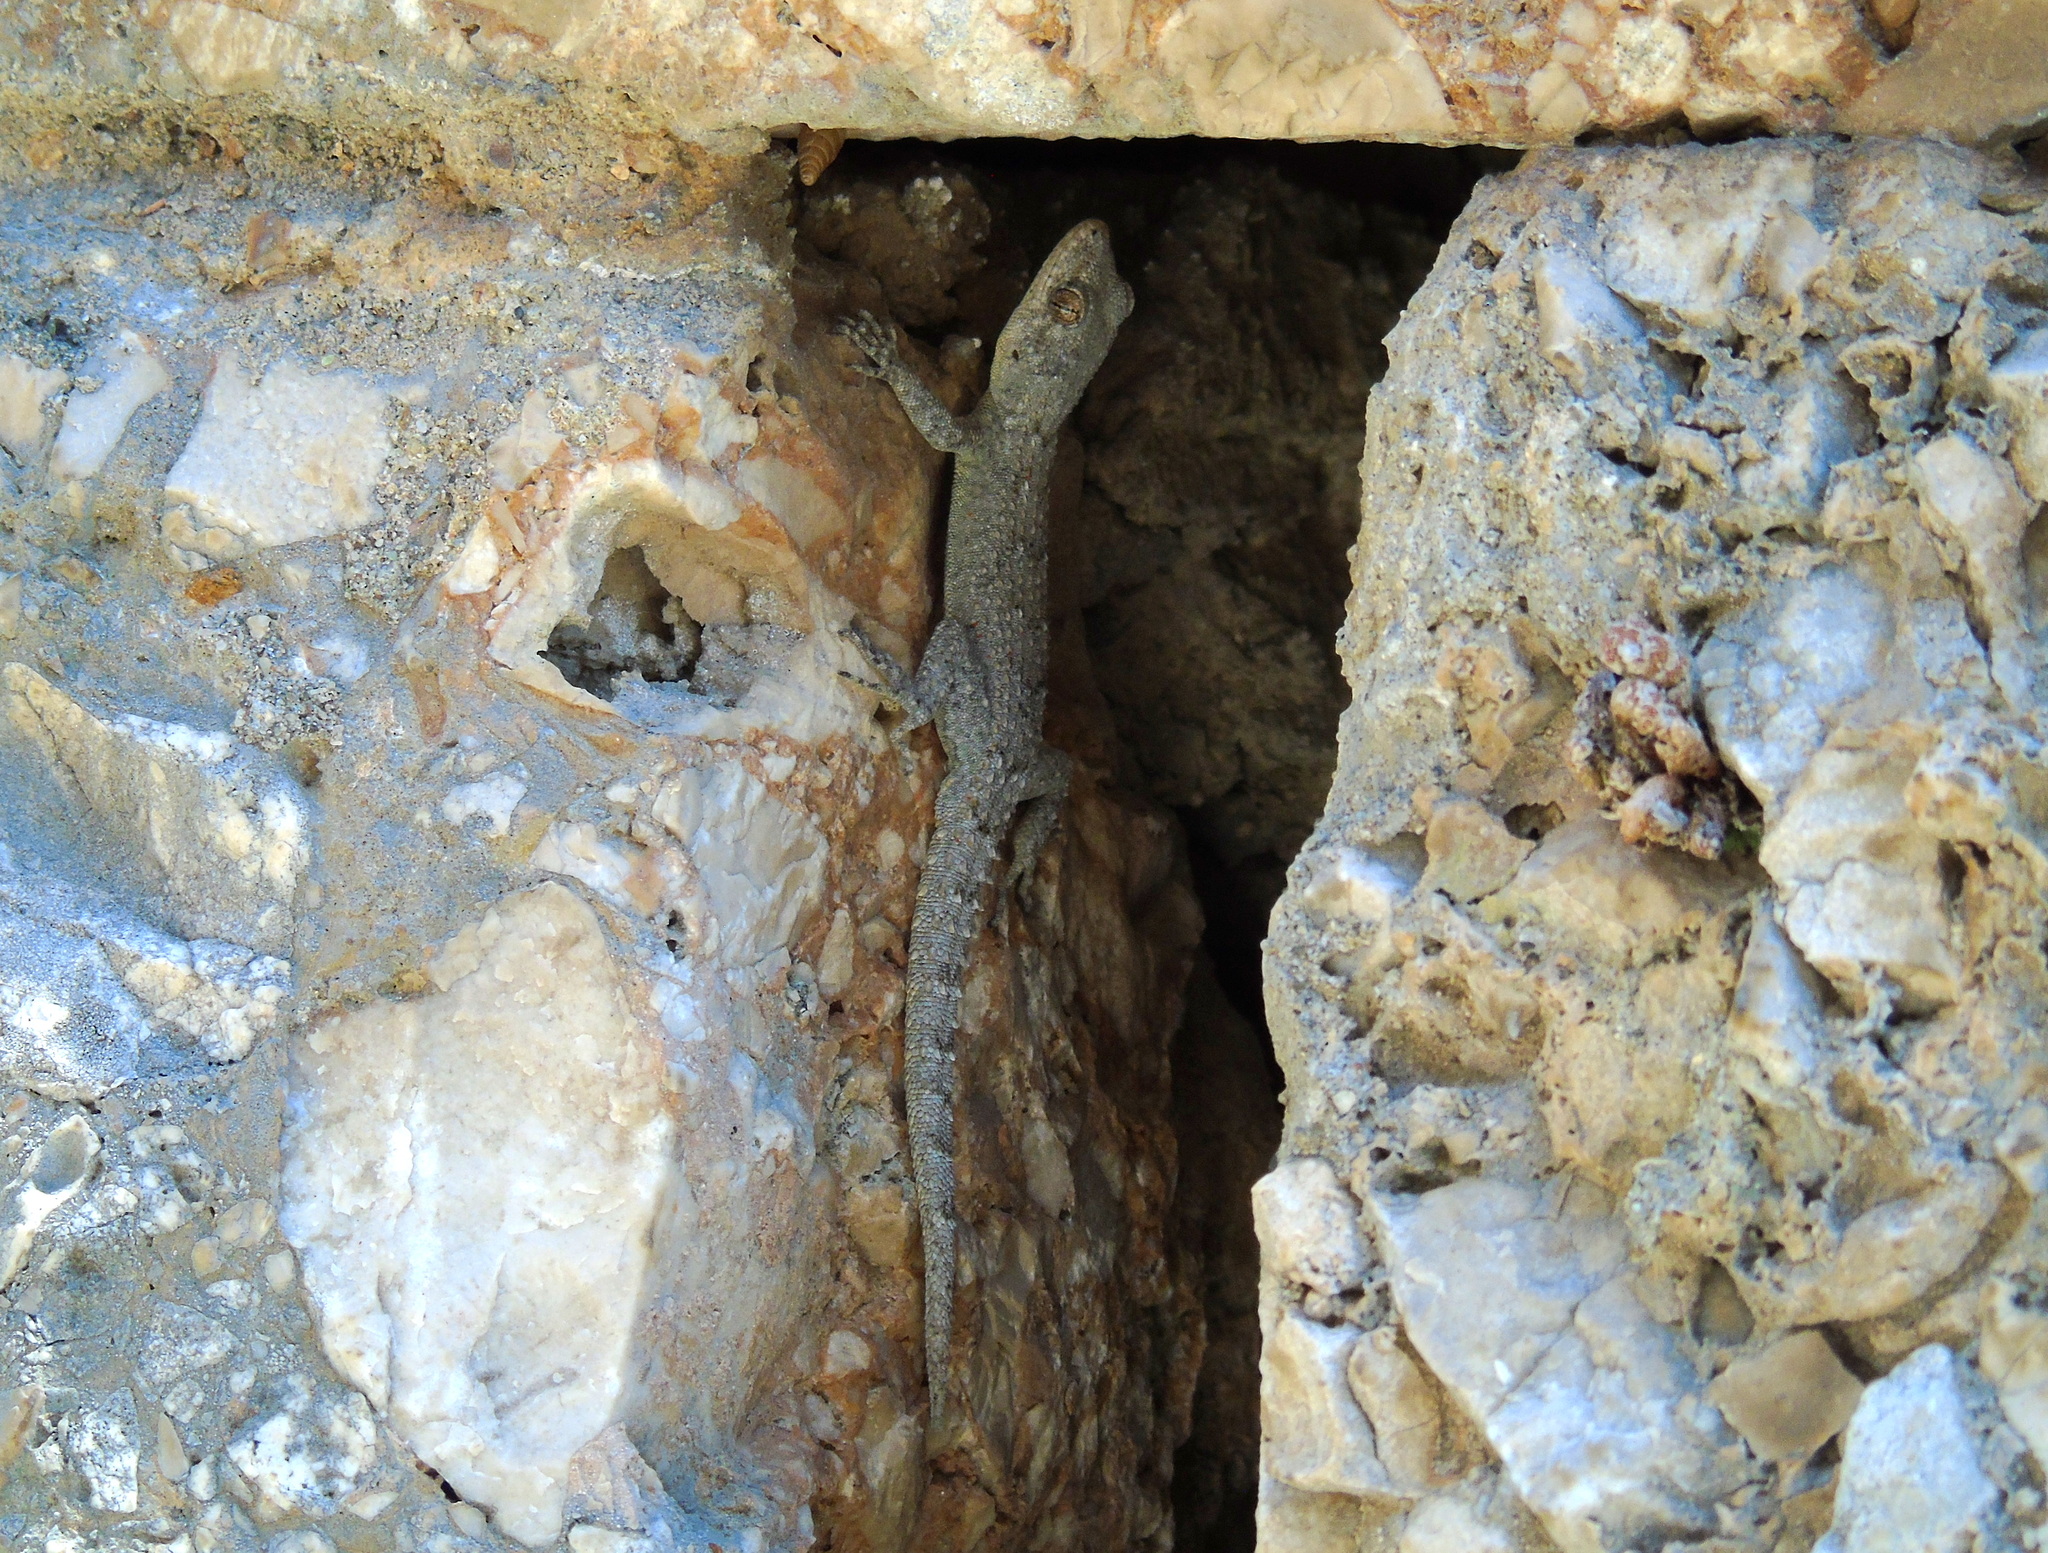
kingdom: Animalia
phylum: Chordata
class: Squamata
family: Gekkonidae
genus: Mediodactylus
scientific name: Mediodactylus kotschyi
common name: Kotschy's gecko
